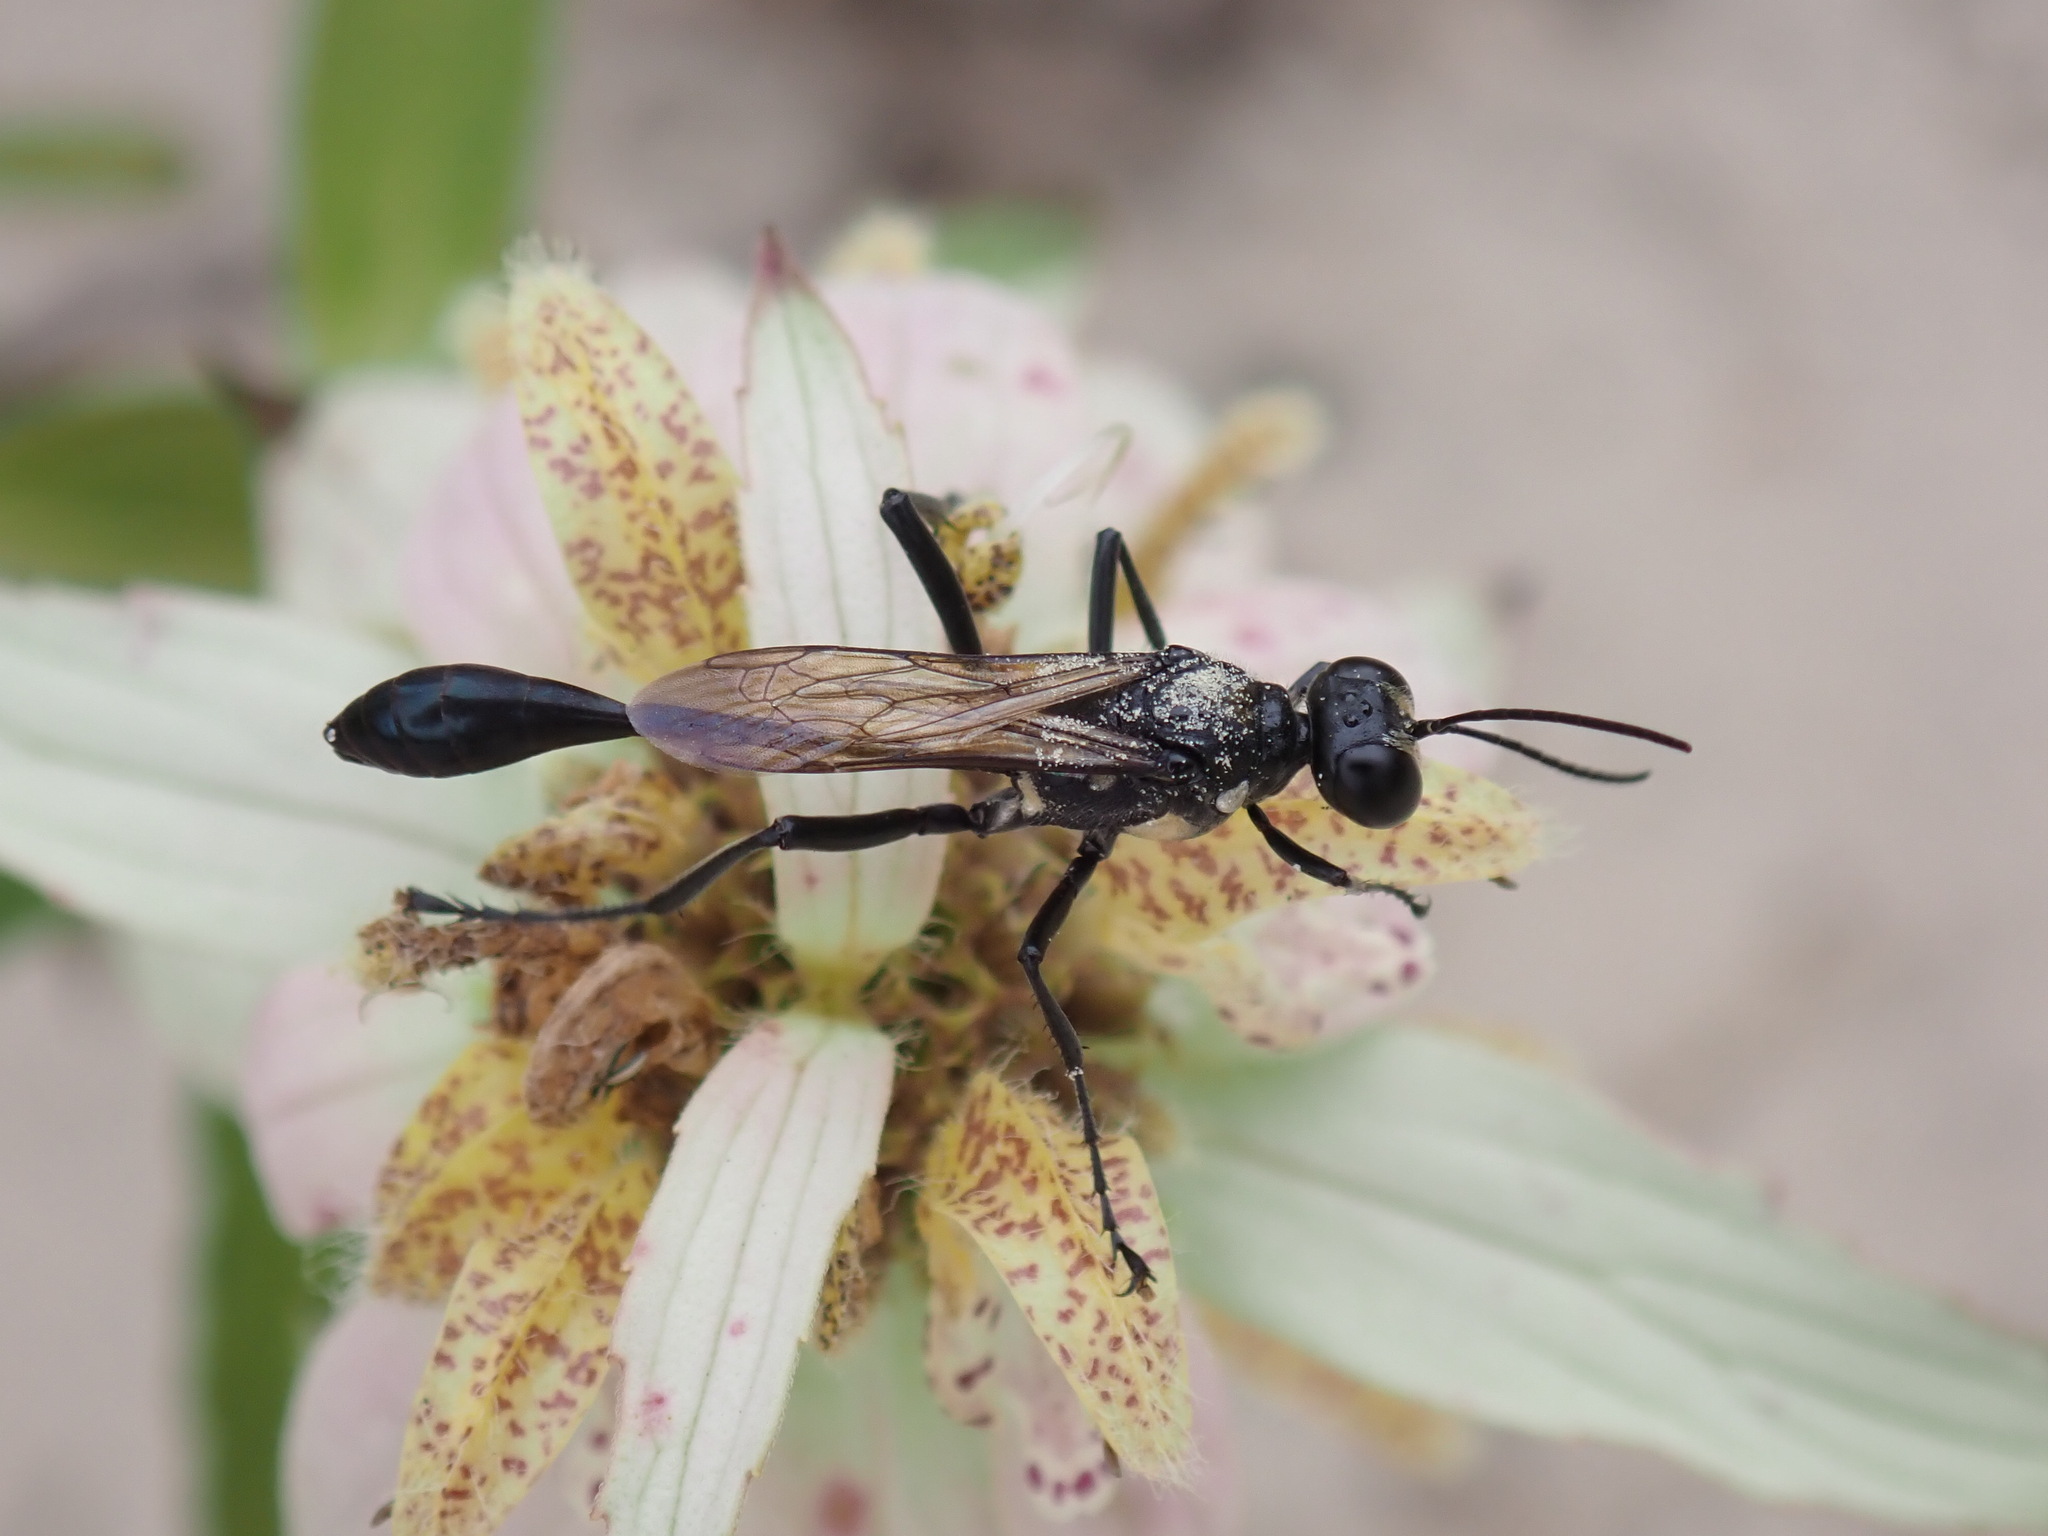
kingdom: Animalia
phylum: Arthropoda
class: Insecta
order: Hymenoptera
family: Sphecidae
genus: Eremnophila
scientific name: Eremnophila aureonotata
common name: Gold-marked thread-waisted wasp
